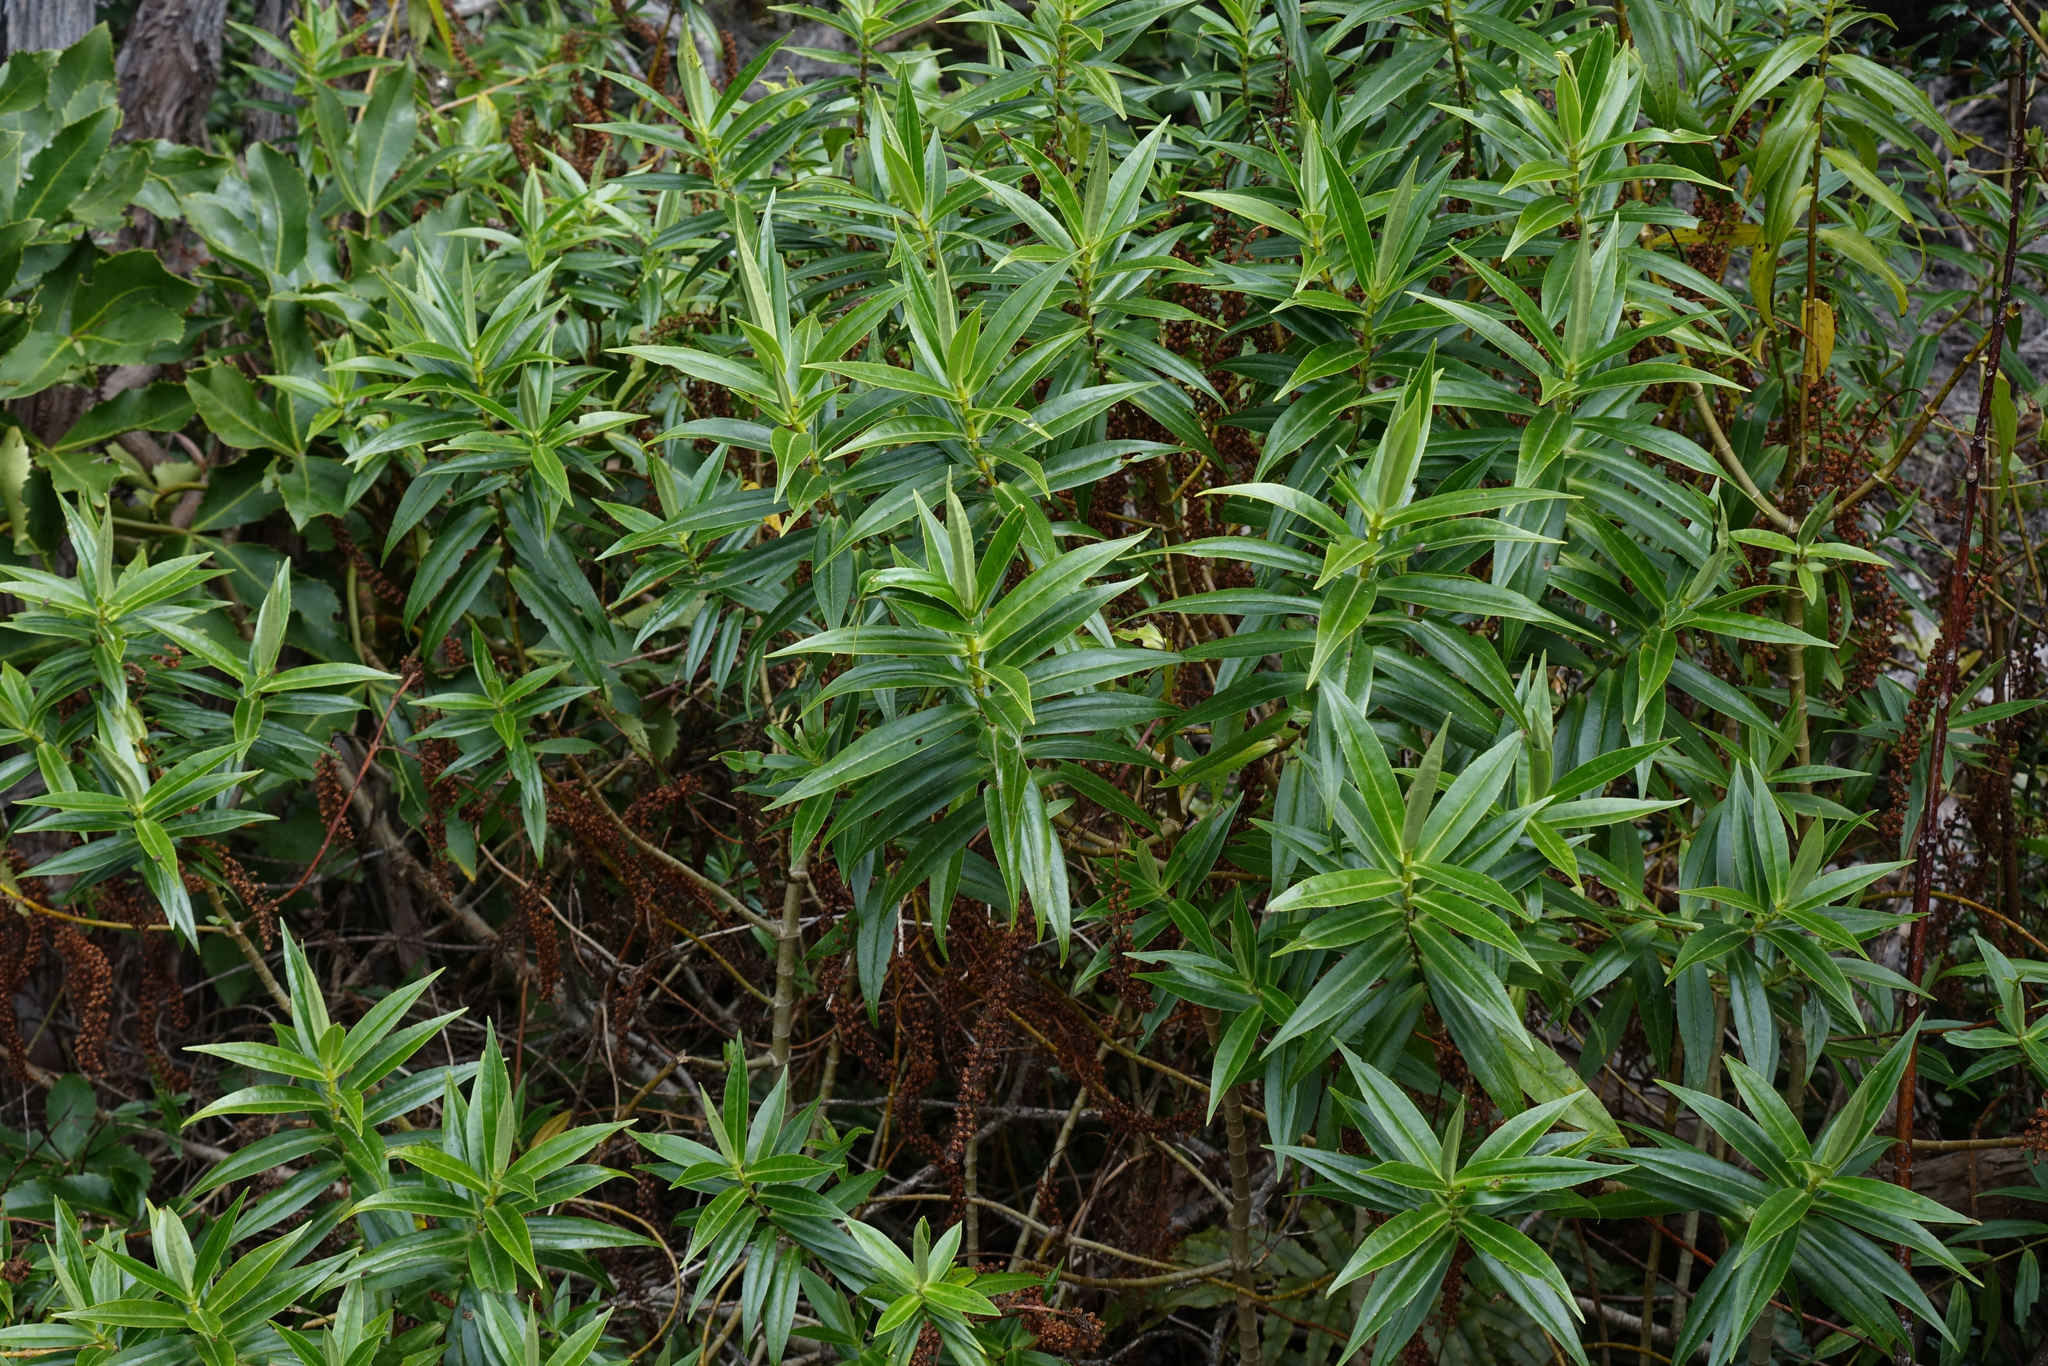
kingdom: Plantae
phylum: Tracheophyta
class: Magnoliopsida
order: Lamiales
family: Plantaginaceae
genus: Veronica
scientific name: Veronica salicifolia
